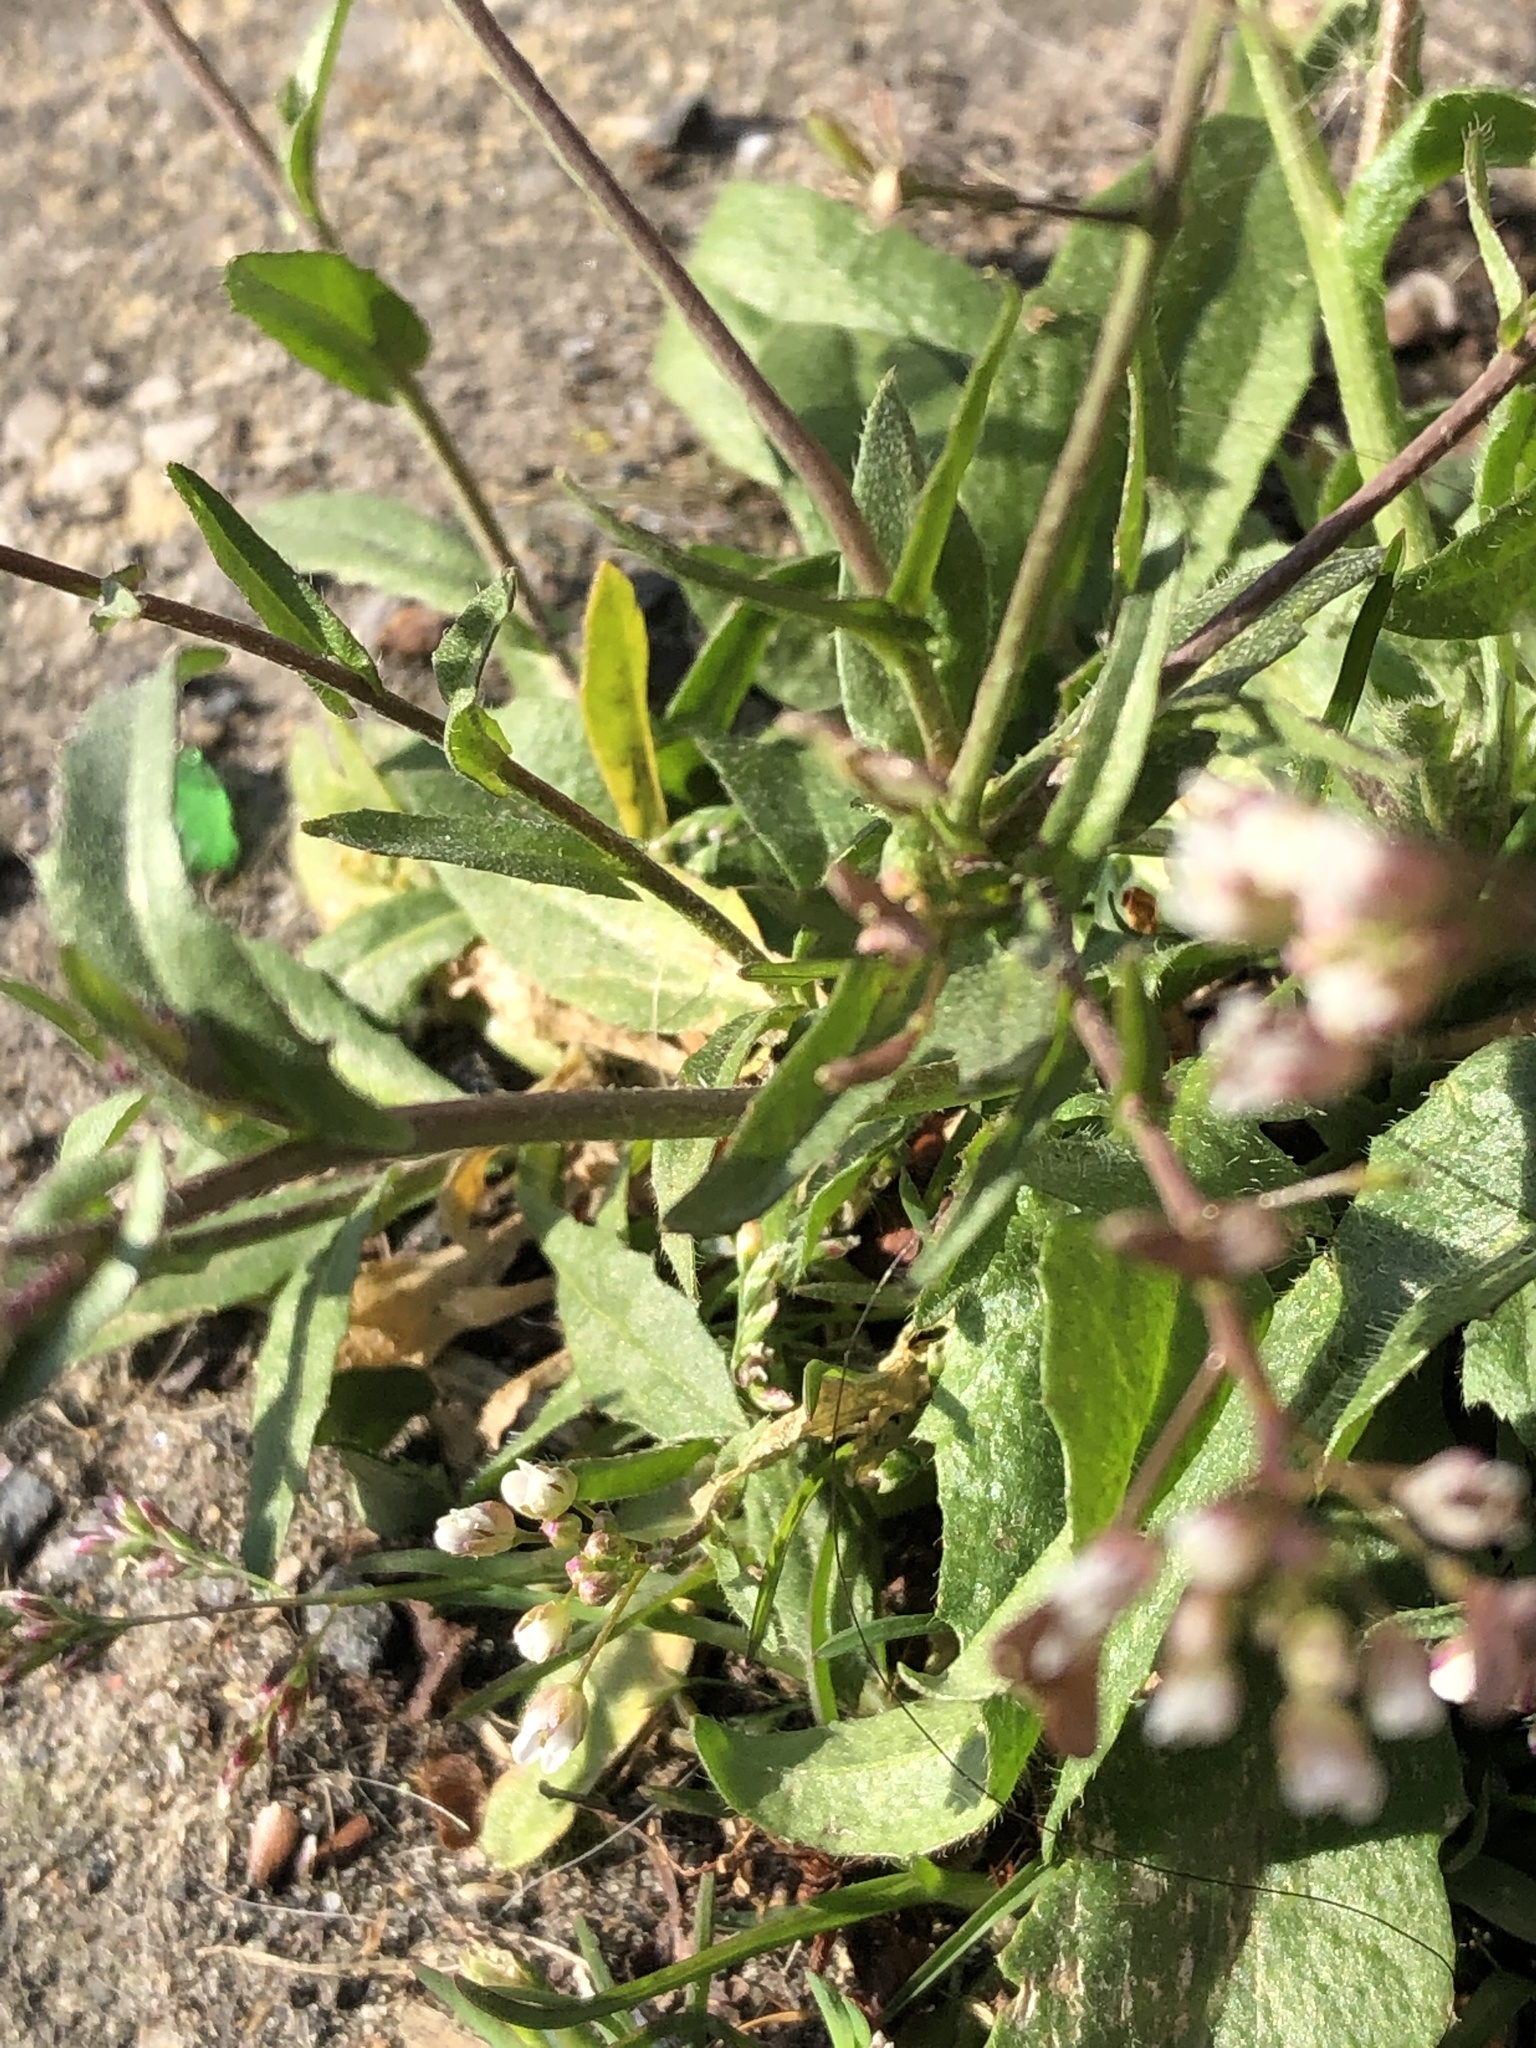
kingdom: Plantae
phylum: Tracheophyta
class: Magnoliopsida
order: Brassicales
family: Brassicaceae
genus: Capsella
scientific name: Capsella bursa-pastoris
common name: Shepherd's purse
